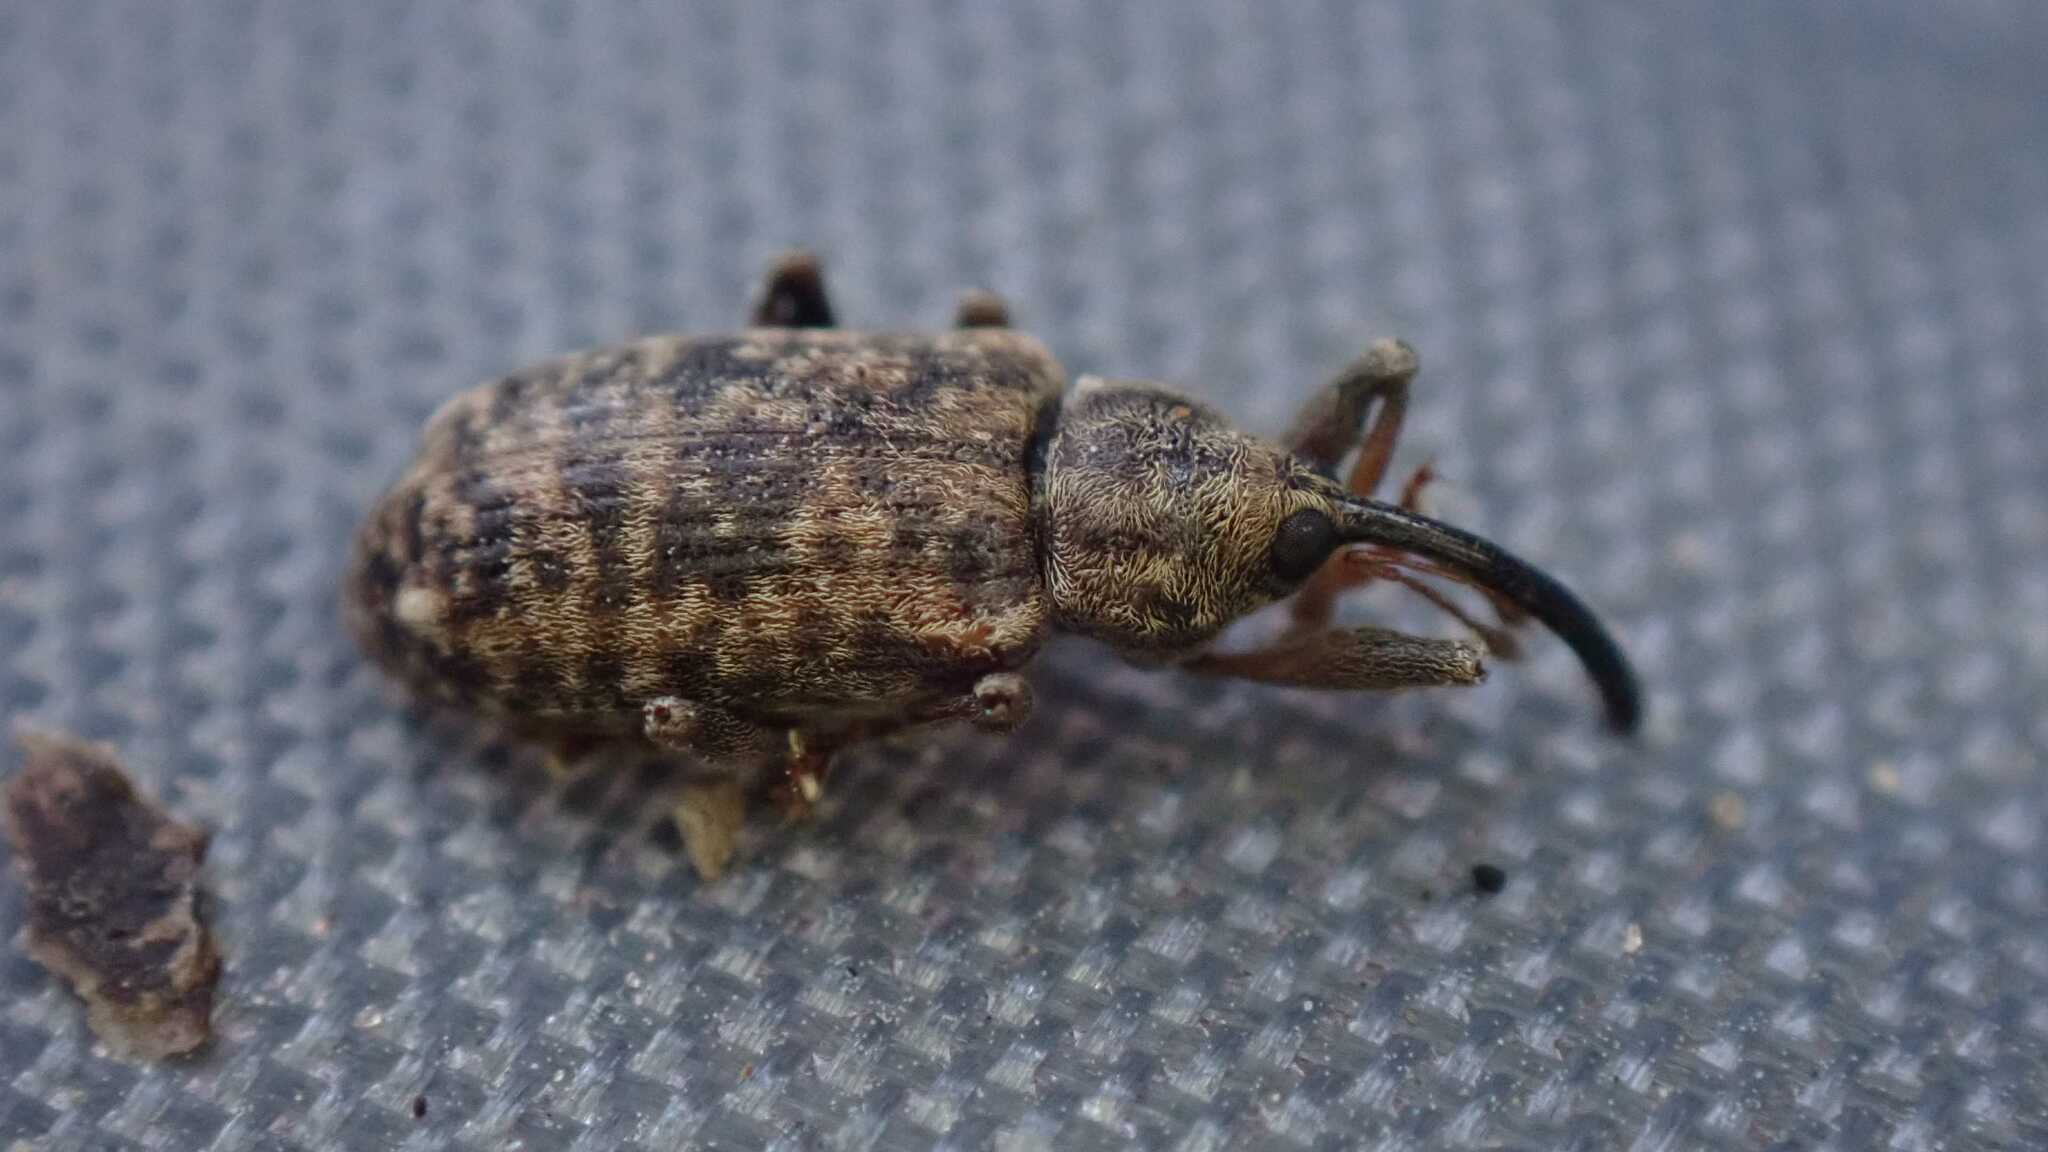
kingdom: Animalia
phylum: Arthropoda
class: Insecta
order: Coleoptera
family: Curculionidae
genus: Dorytomus
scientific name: Dorytomus longimanus
